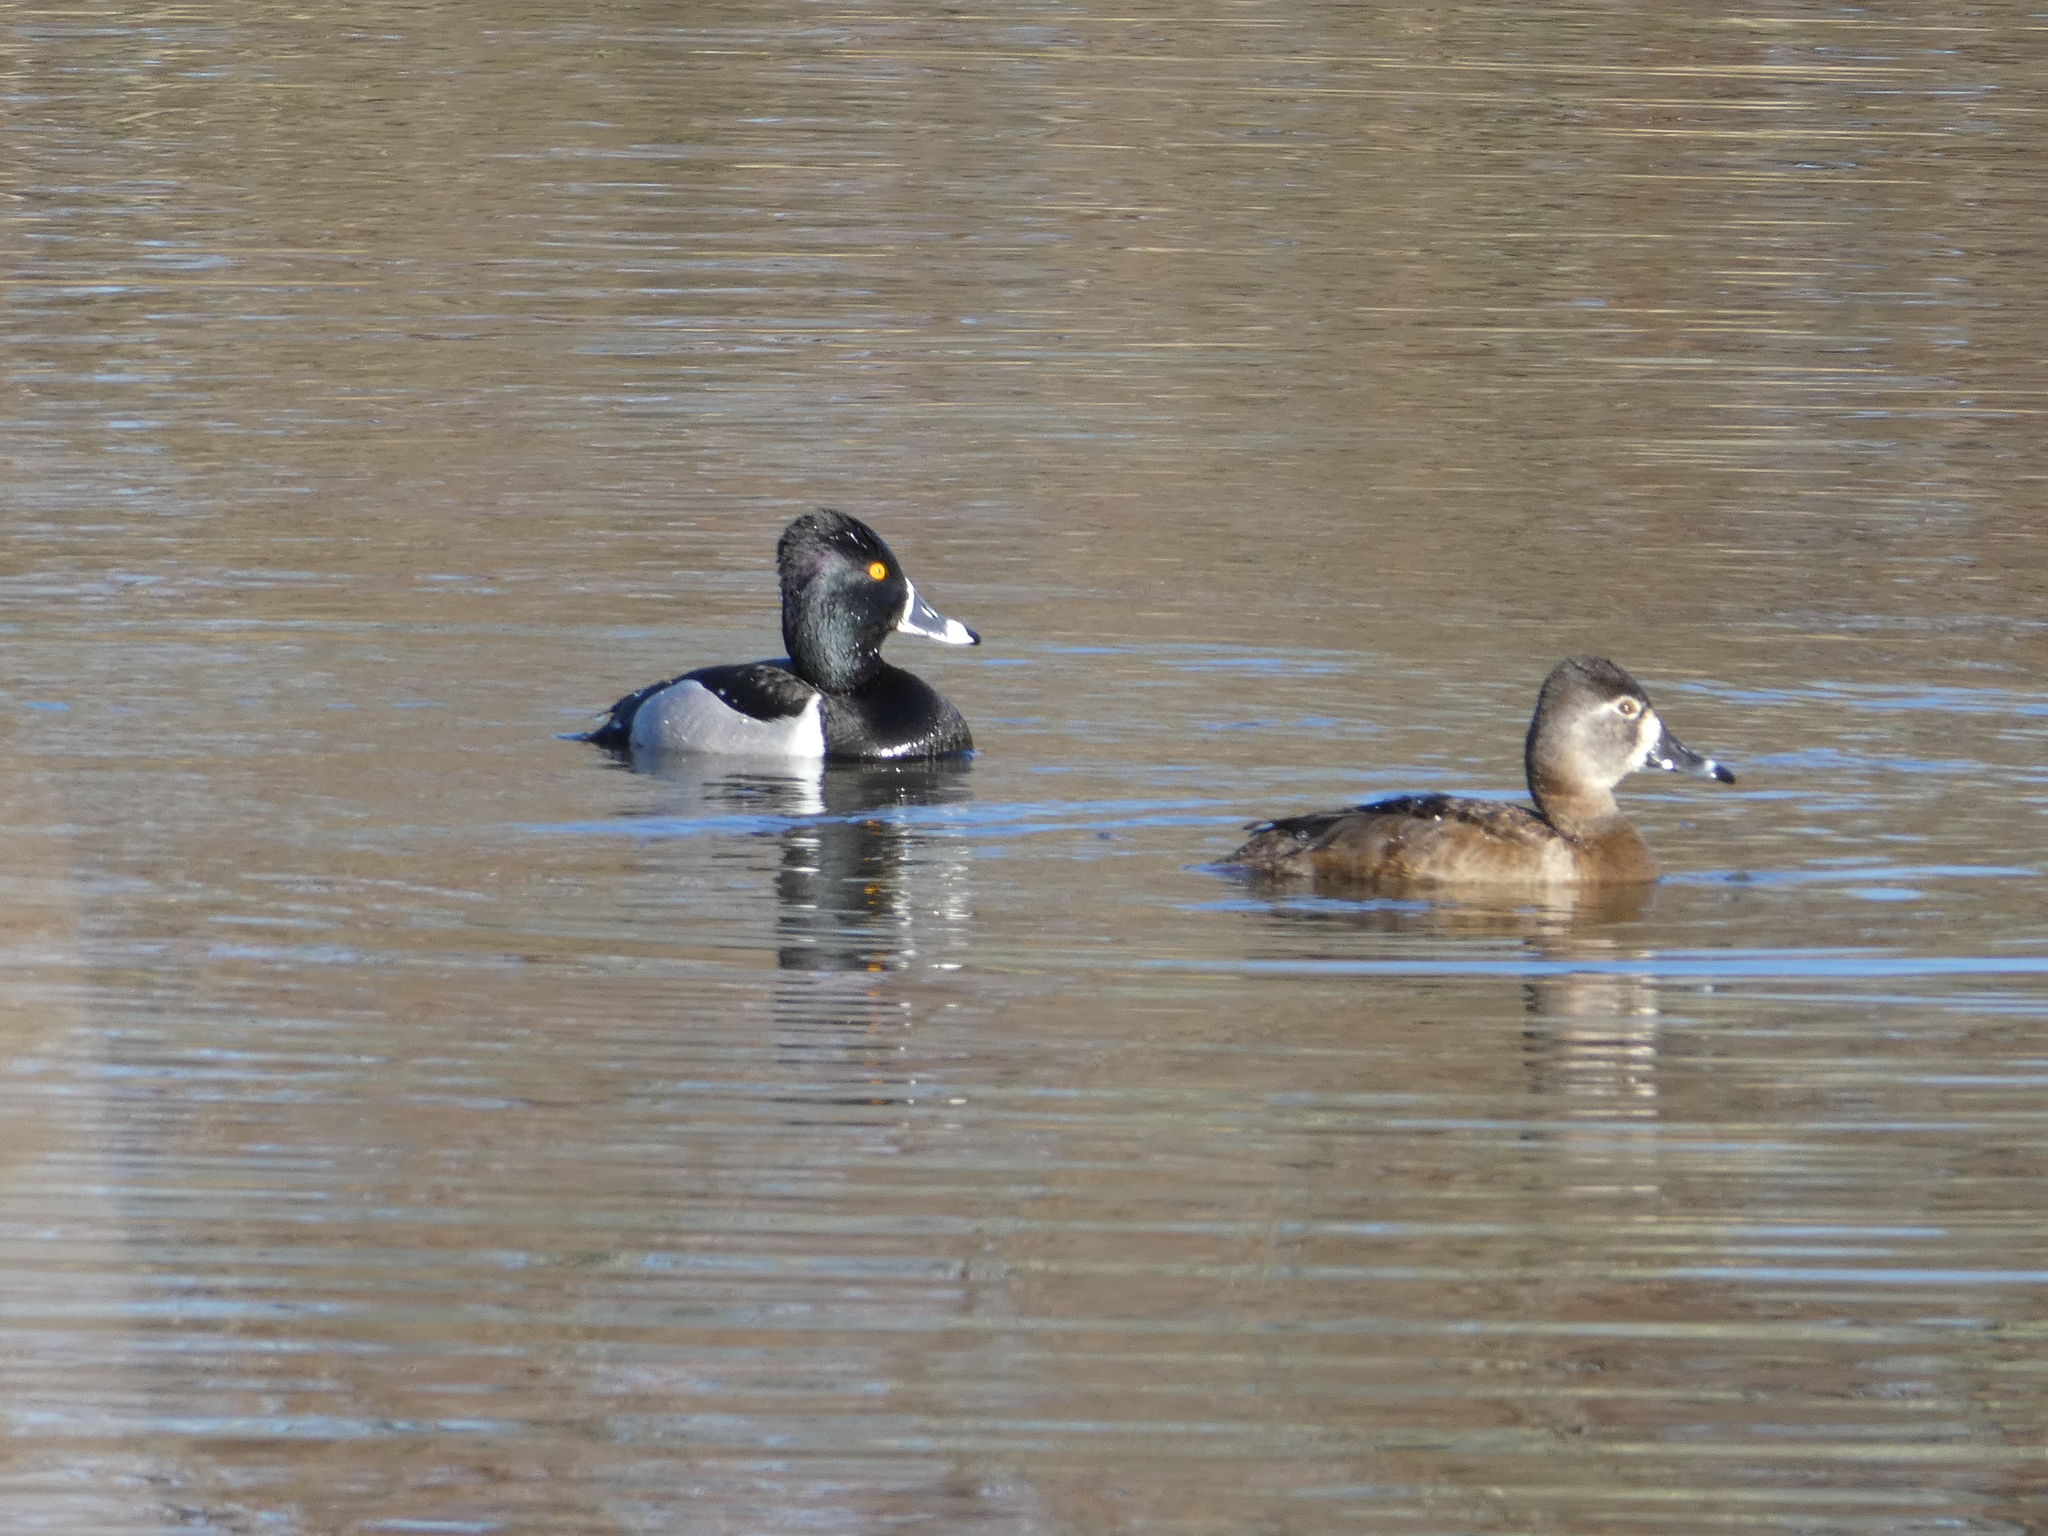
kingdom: Animalia
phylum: Chordata
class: Aves
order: Anseriformes
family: Anatidae
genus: Aythya
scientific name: Aythya collaris
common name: Ring-necked duck
